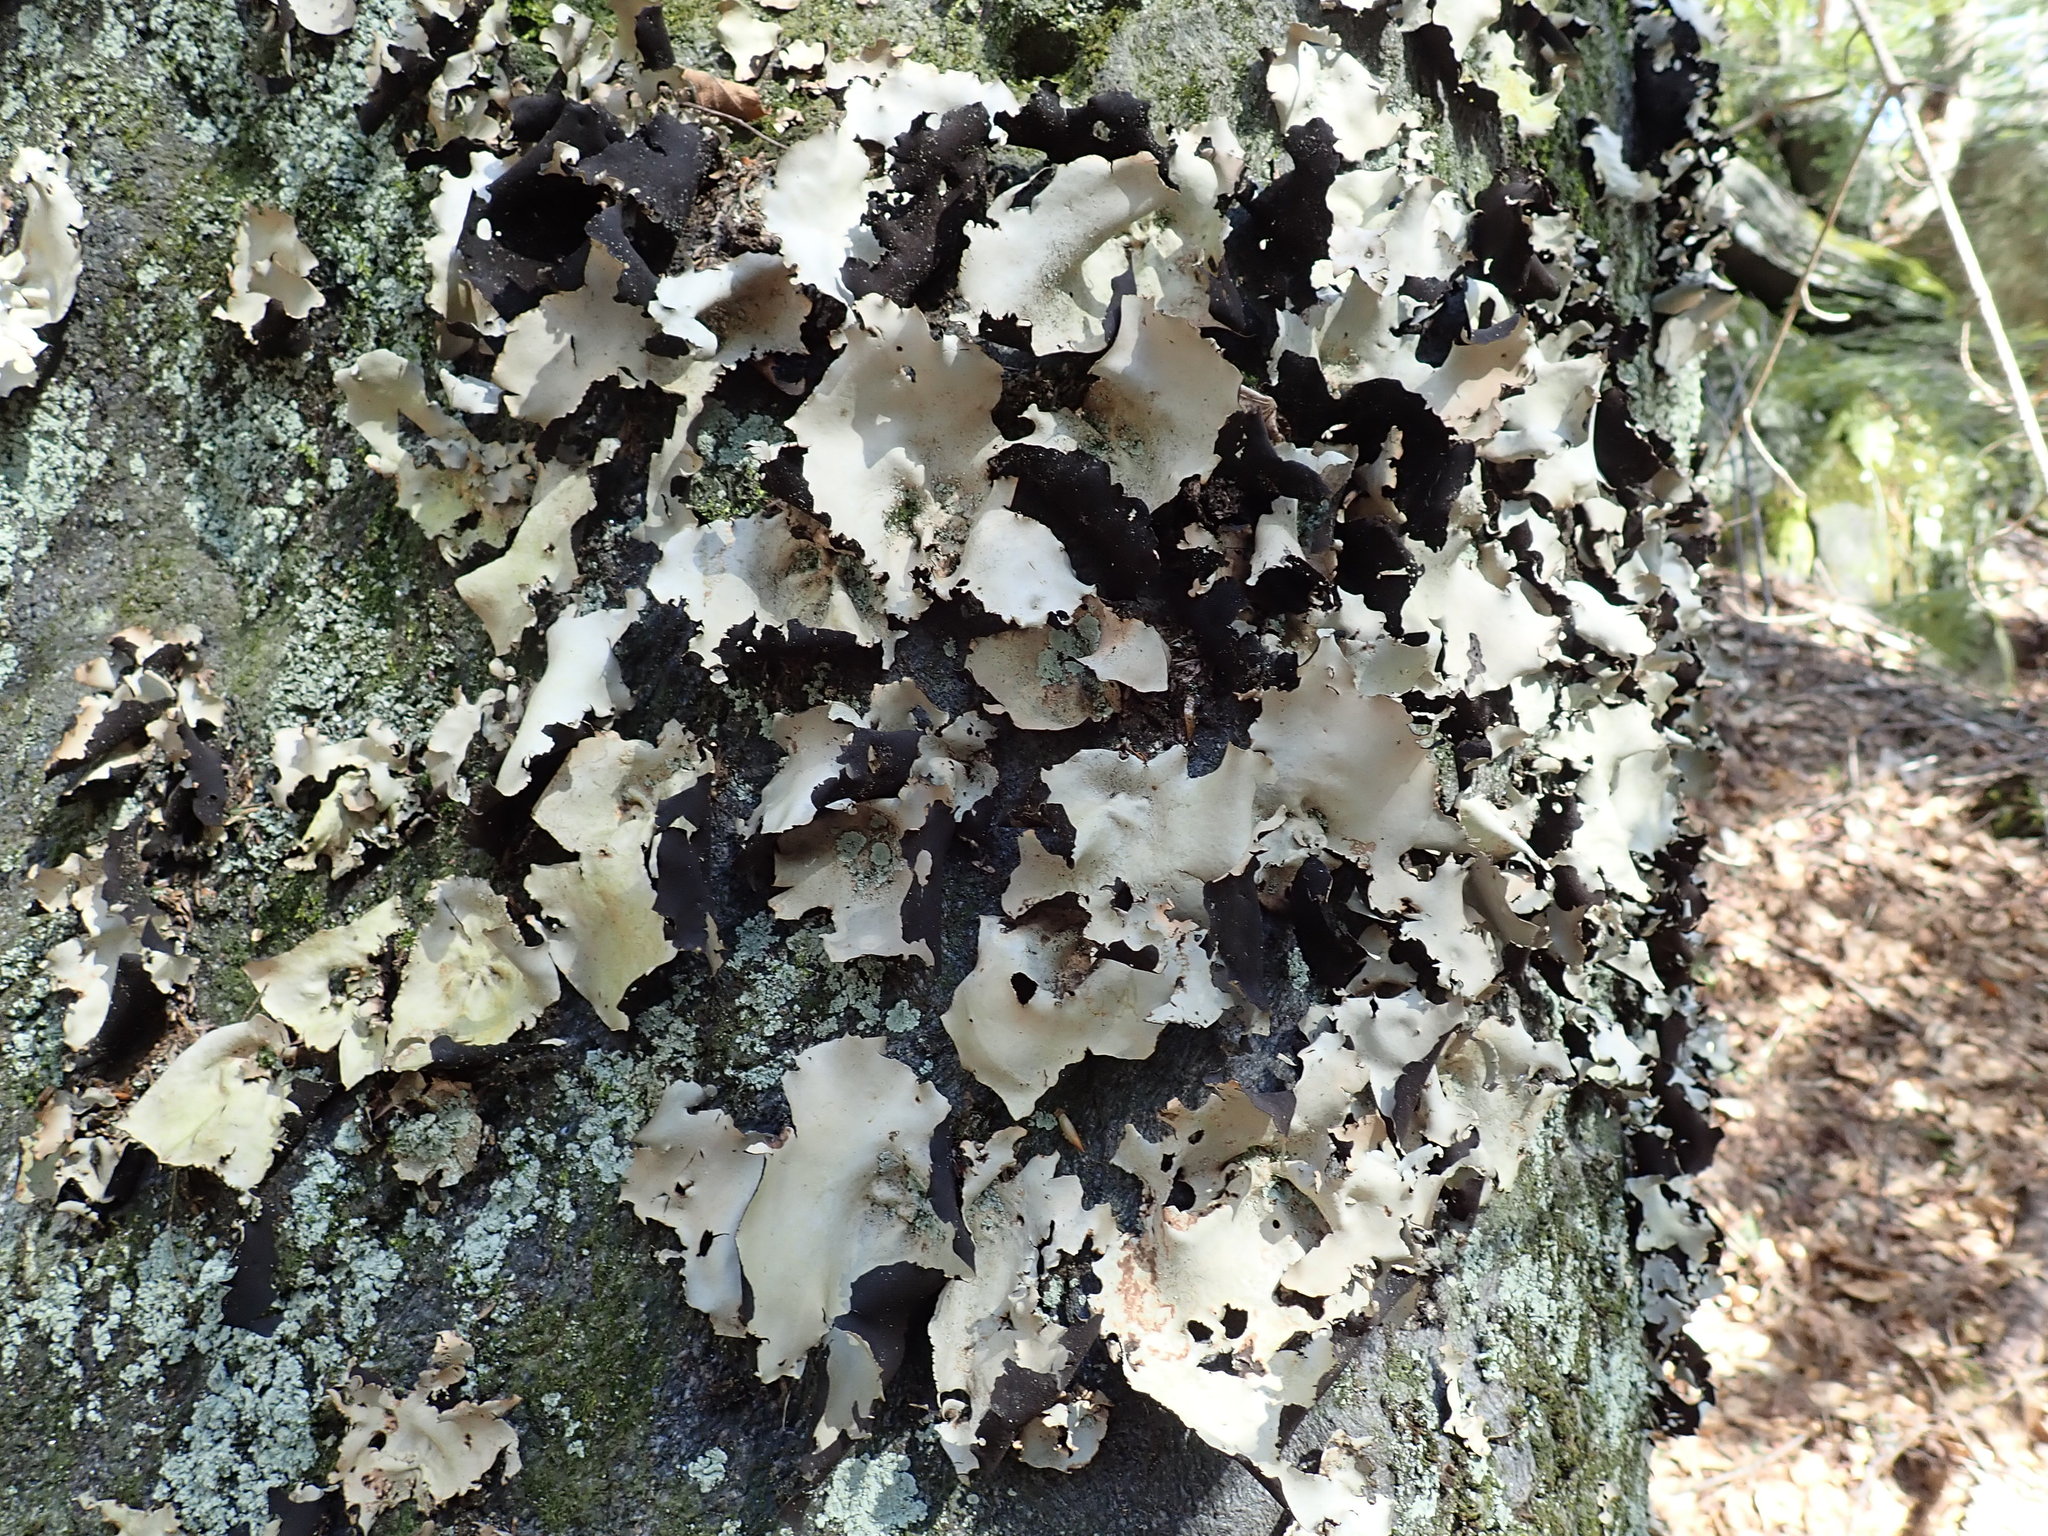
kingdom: Fungi
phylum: Ascomycota
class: Lecanoromycetes
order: Umbilicariales
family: Umbilicariaceae
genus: Umbilicaria
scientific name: Umbilicaria mammulata
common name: Smooth rock tripe
